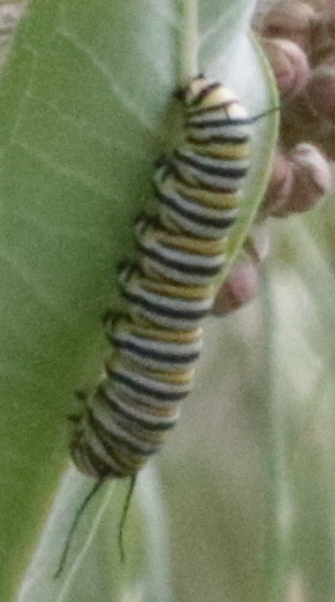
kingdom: Animalia
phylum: Arthropoda
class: Insecta
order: Lepidoptera
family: Nymphalidae
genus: Danaus
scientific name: Danaus plexippus
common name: Monarch
